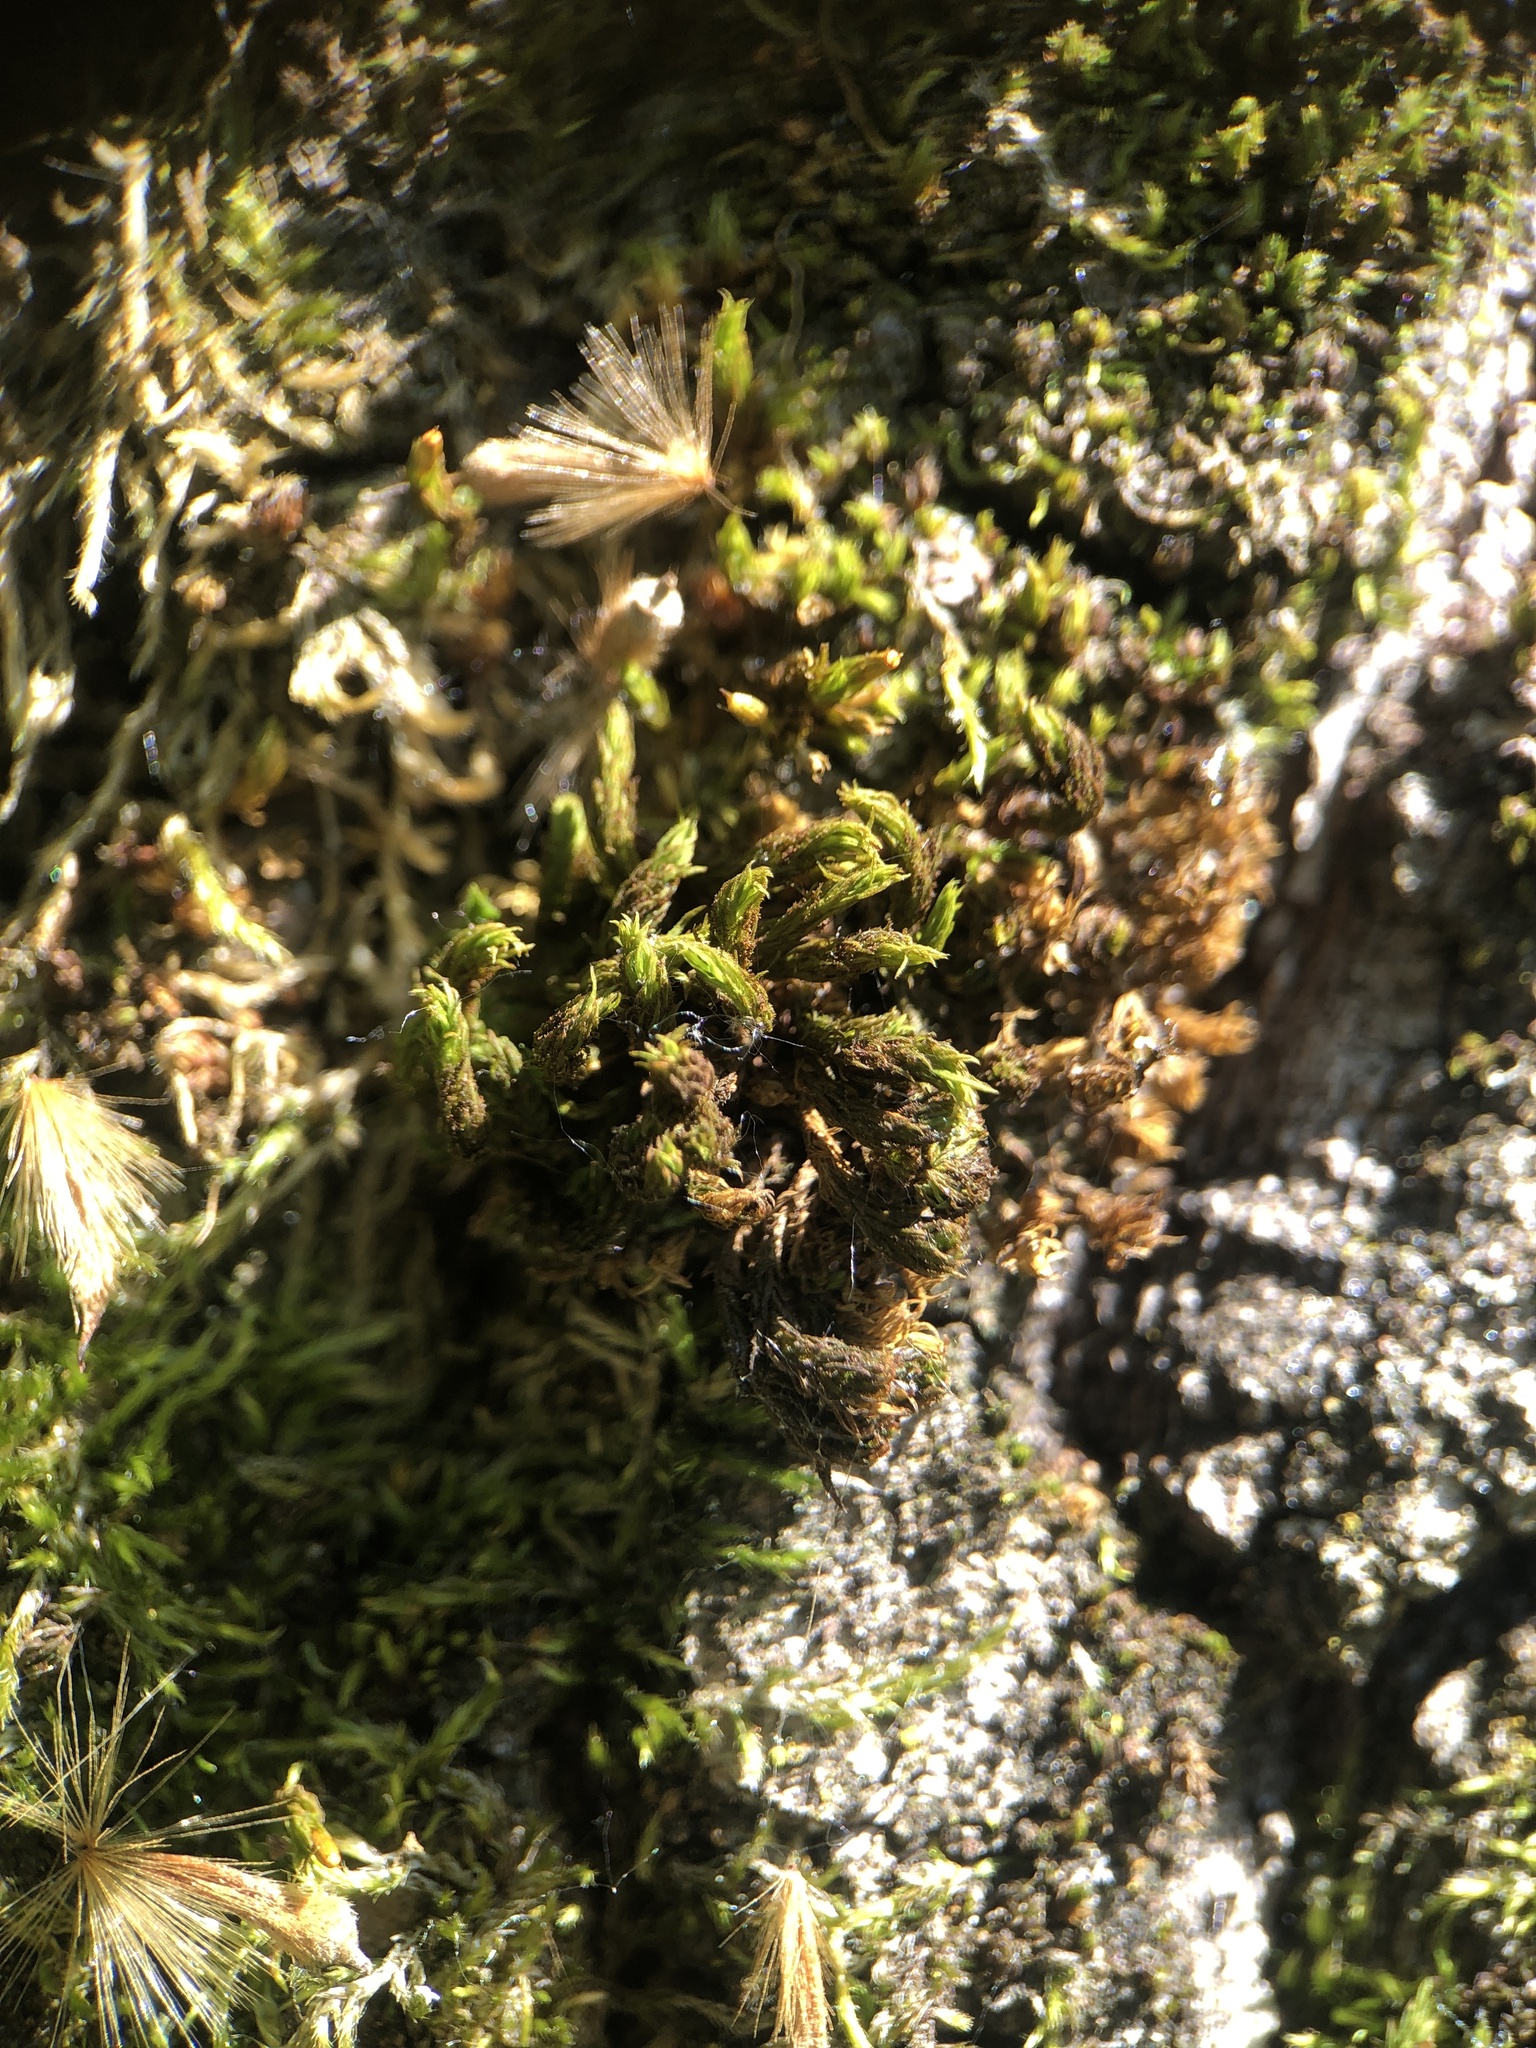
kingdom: Plantae
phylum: Bryophyta
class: Bryopsida
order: Orthotrichales
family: Orthotrichaceae
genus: Pulvigera
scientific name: Pulvigera lyellii
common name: Lyell's bristle-moss
